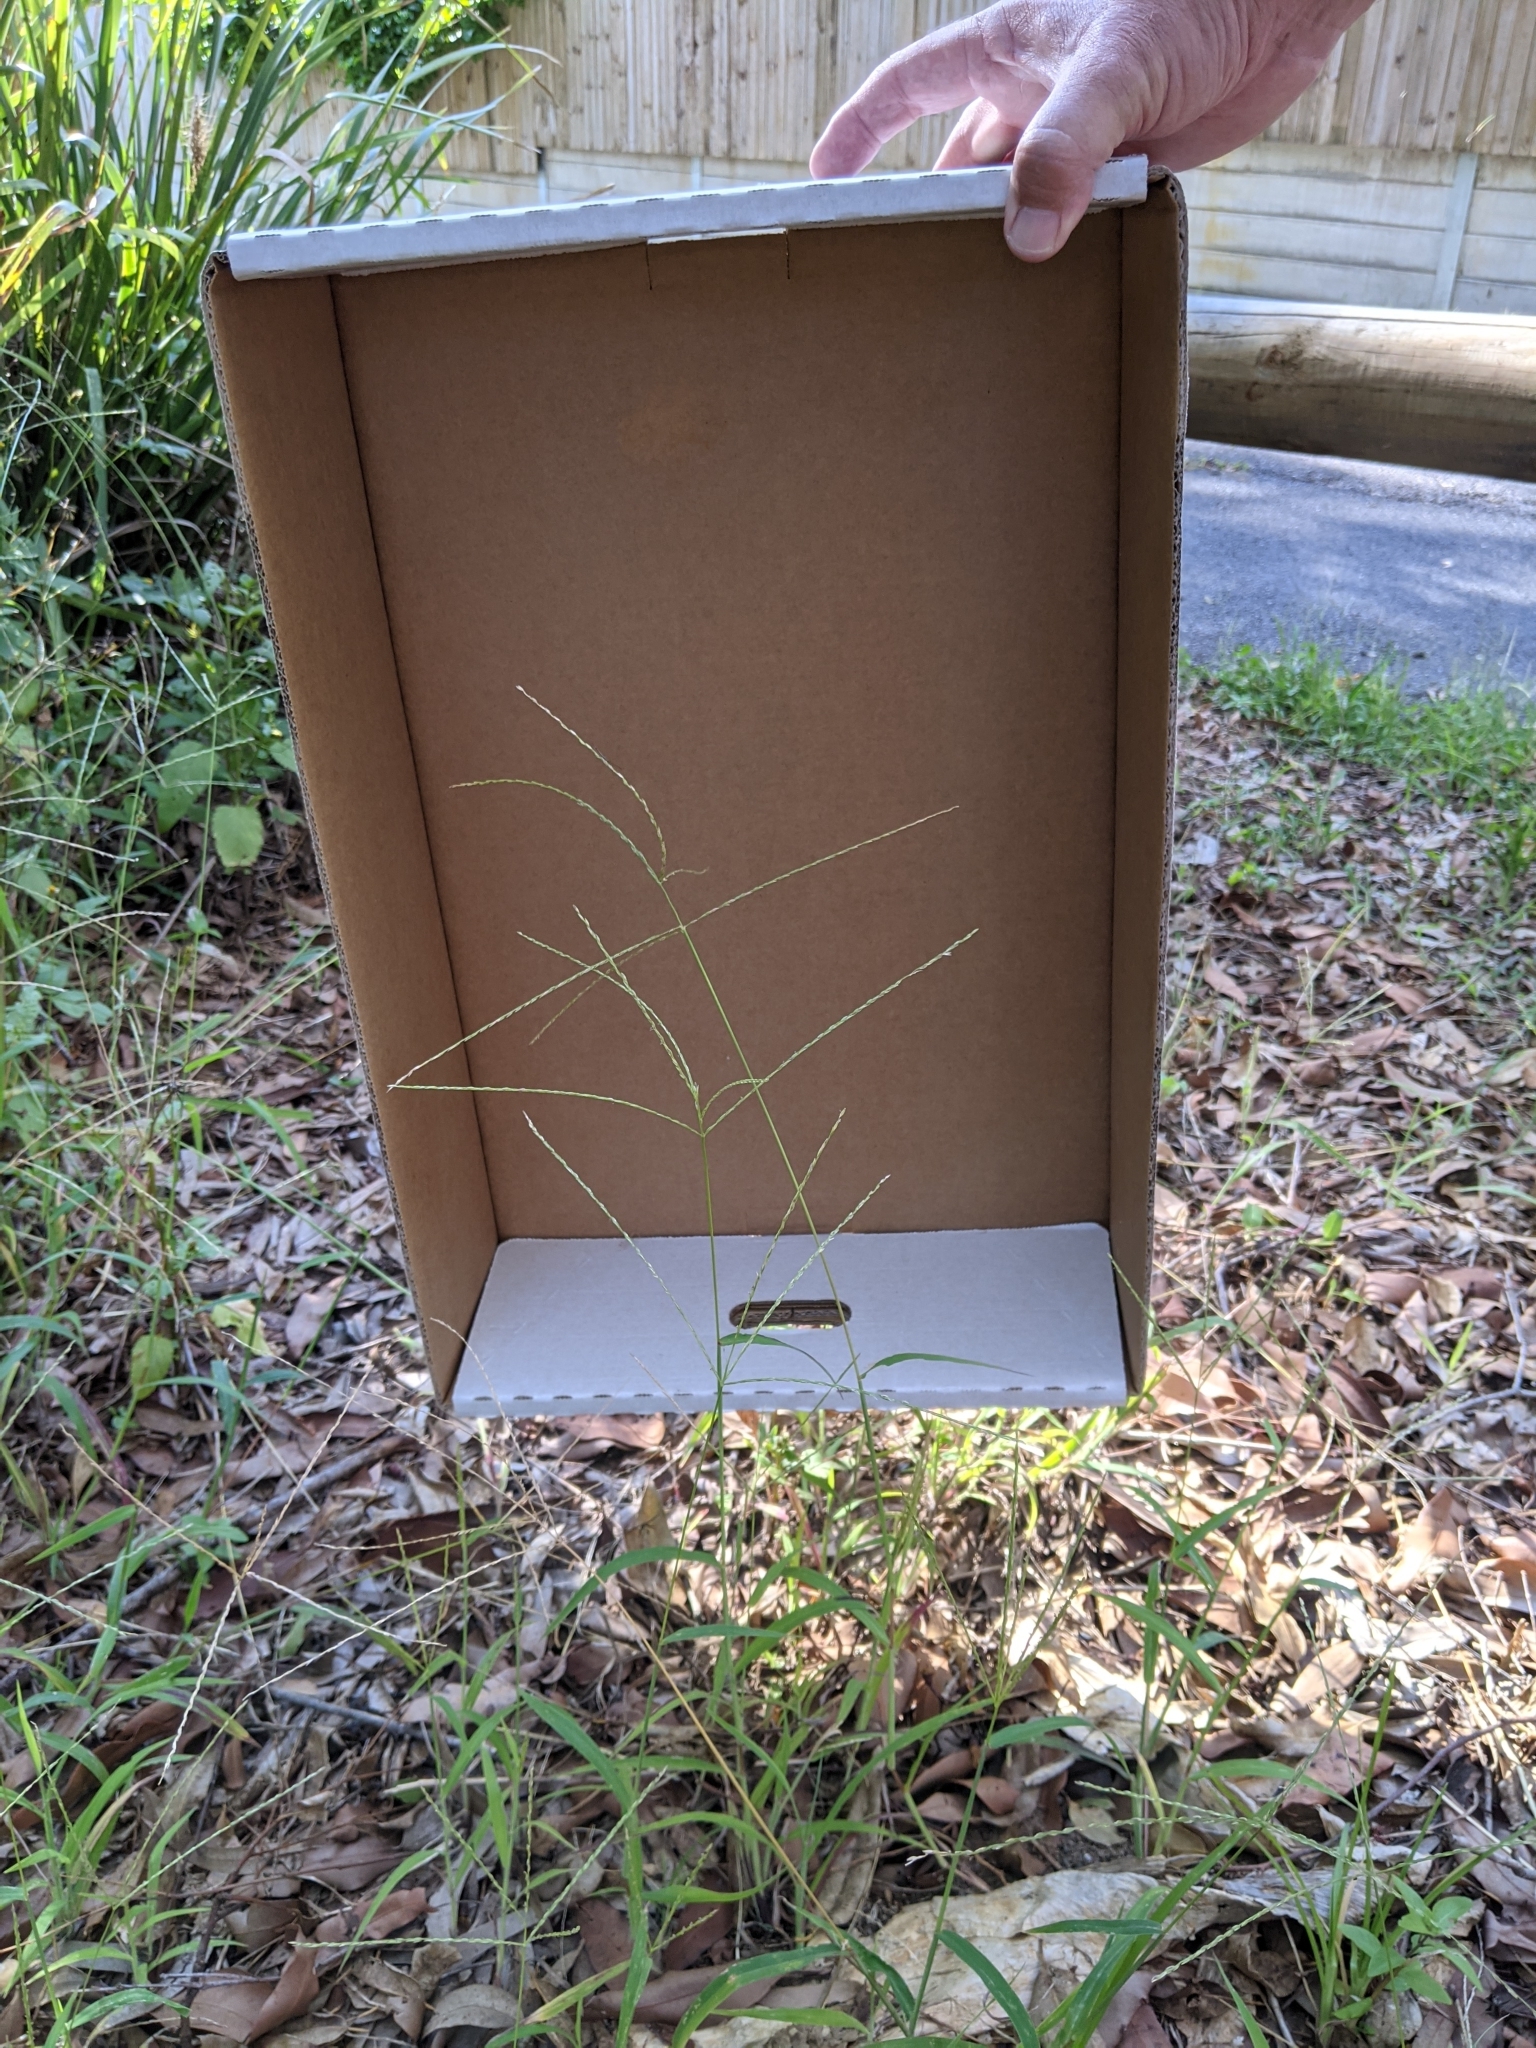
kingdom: Plantae
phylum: Tracheophyta
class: Liliopsida
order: Poales
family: Poaceae
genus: Digitaria
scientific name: Digitaria ciliaris
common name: Tropical finger-grass
